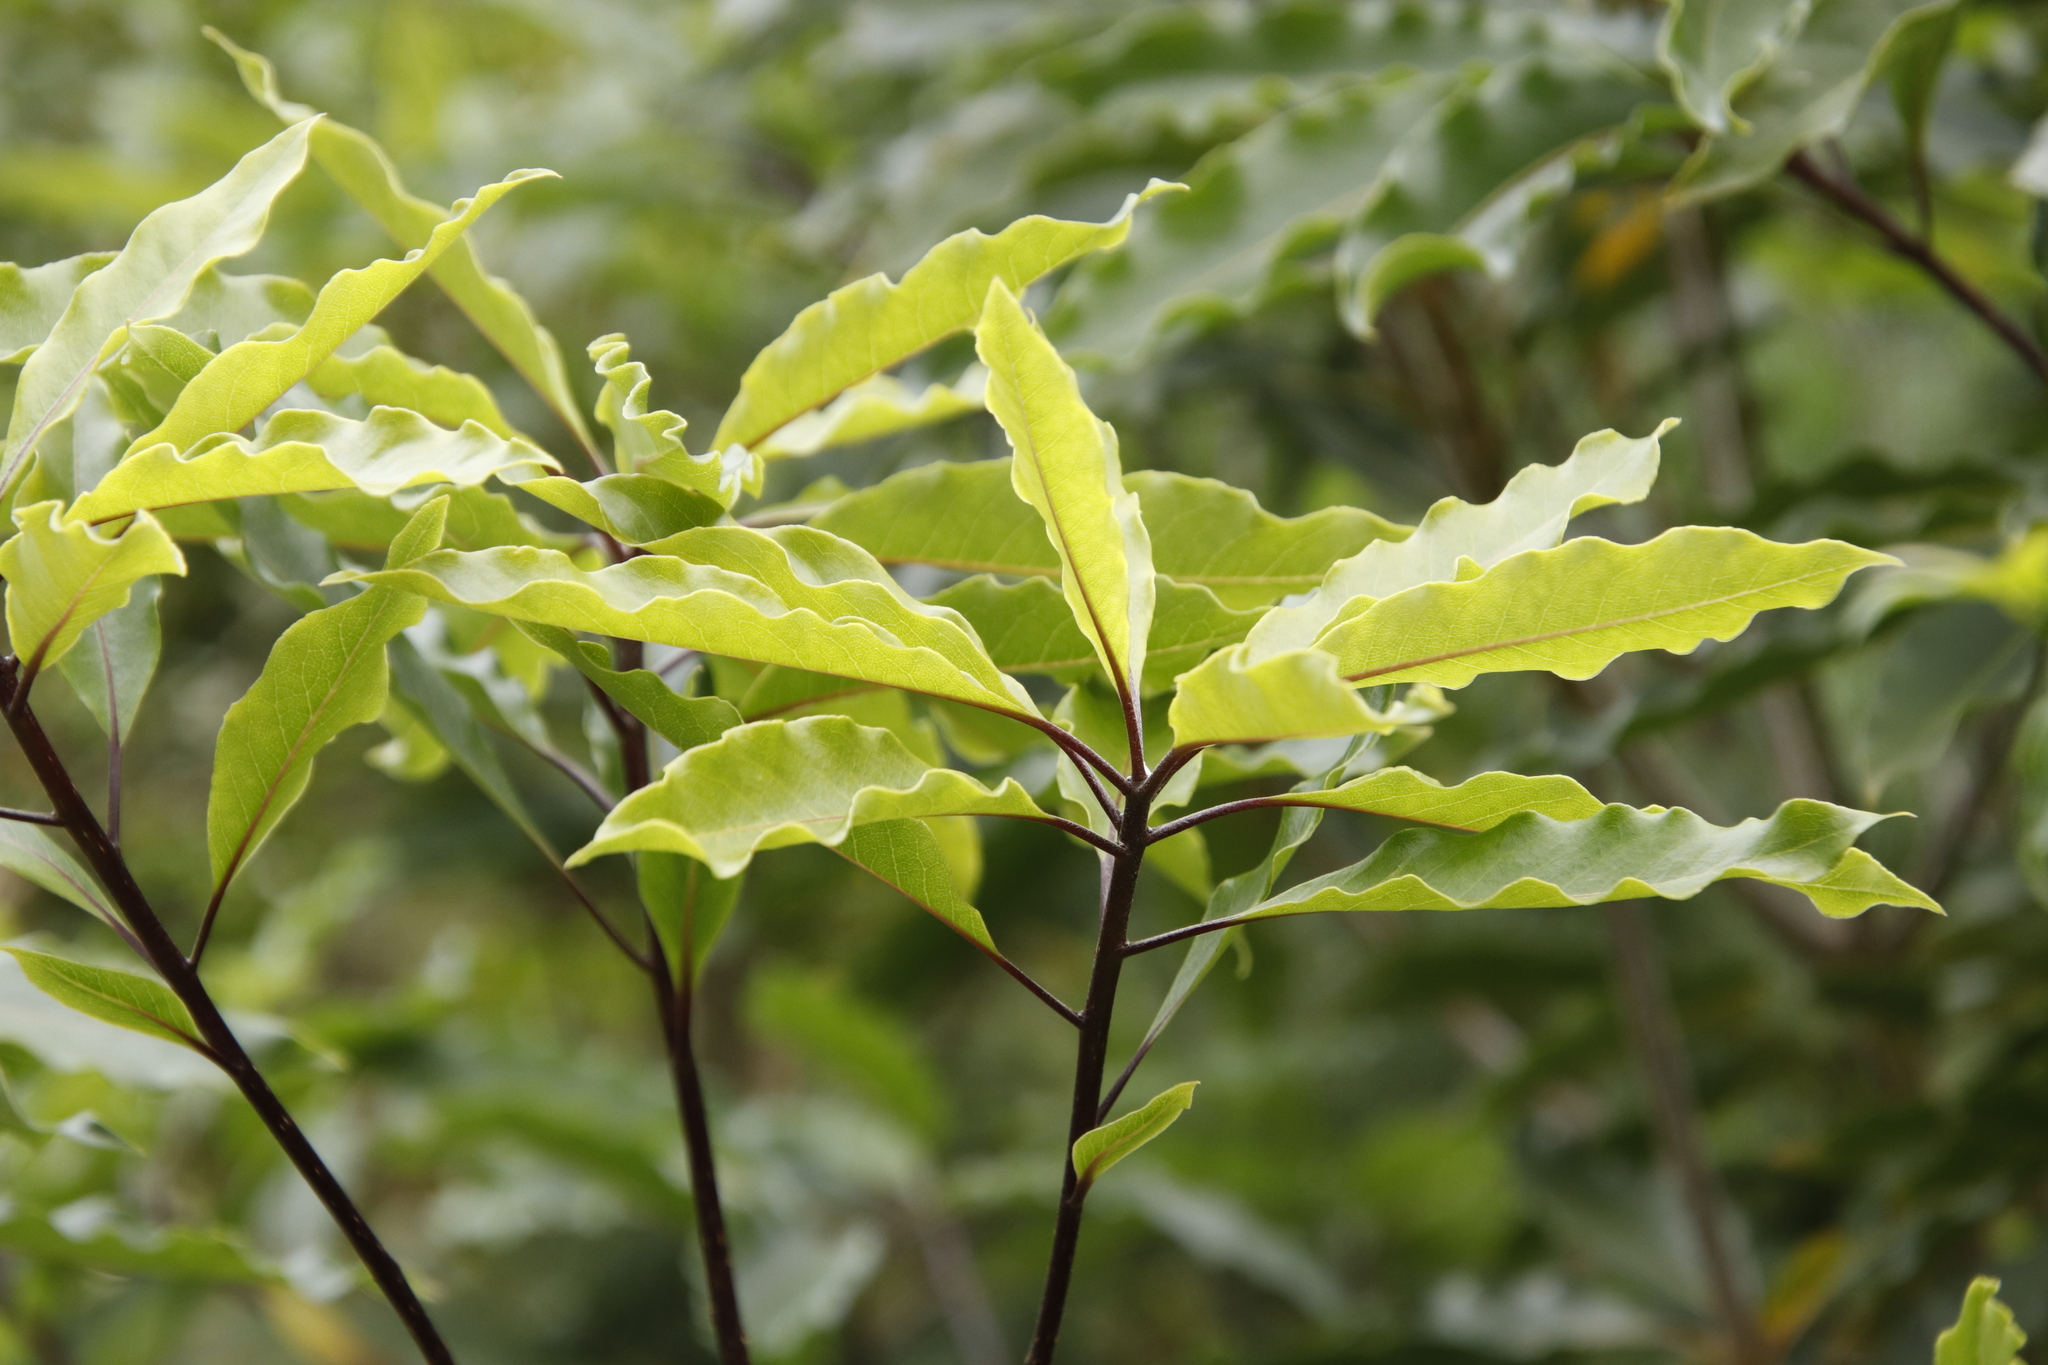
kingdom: Plantae
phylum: Tracheophyta
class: Magnoliopsida
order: Apiales
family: Pittosporaceae
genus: Pittosporum
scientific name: Pittosporum undulatum
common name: Australian cheesewood
